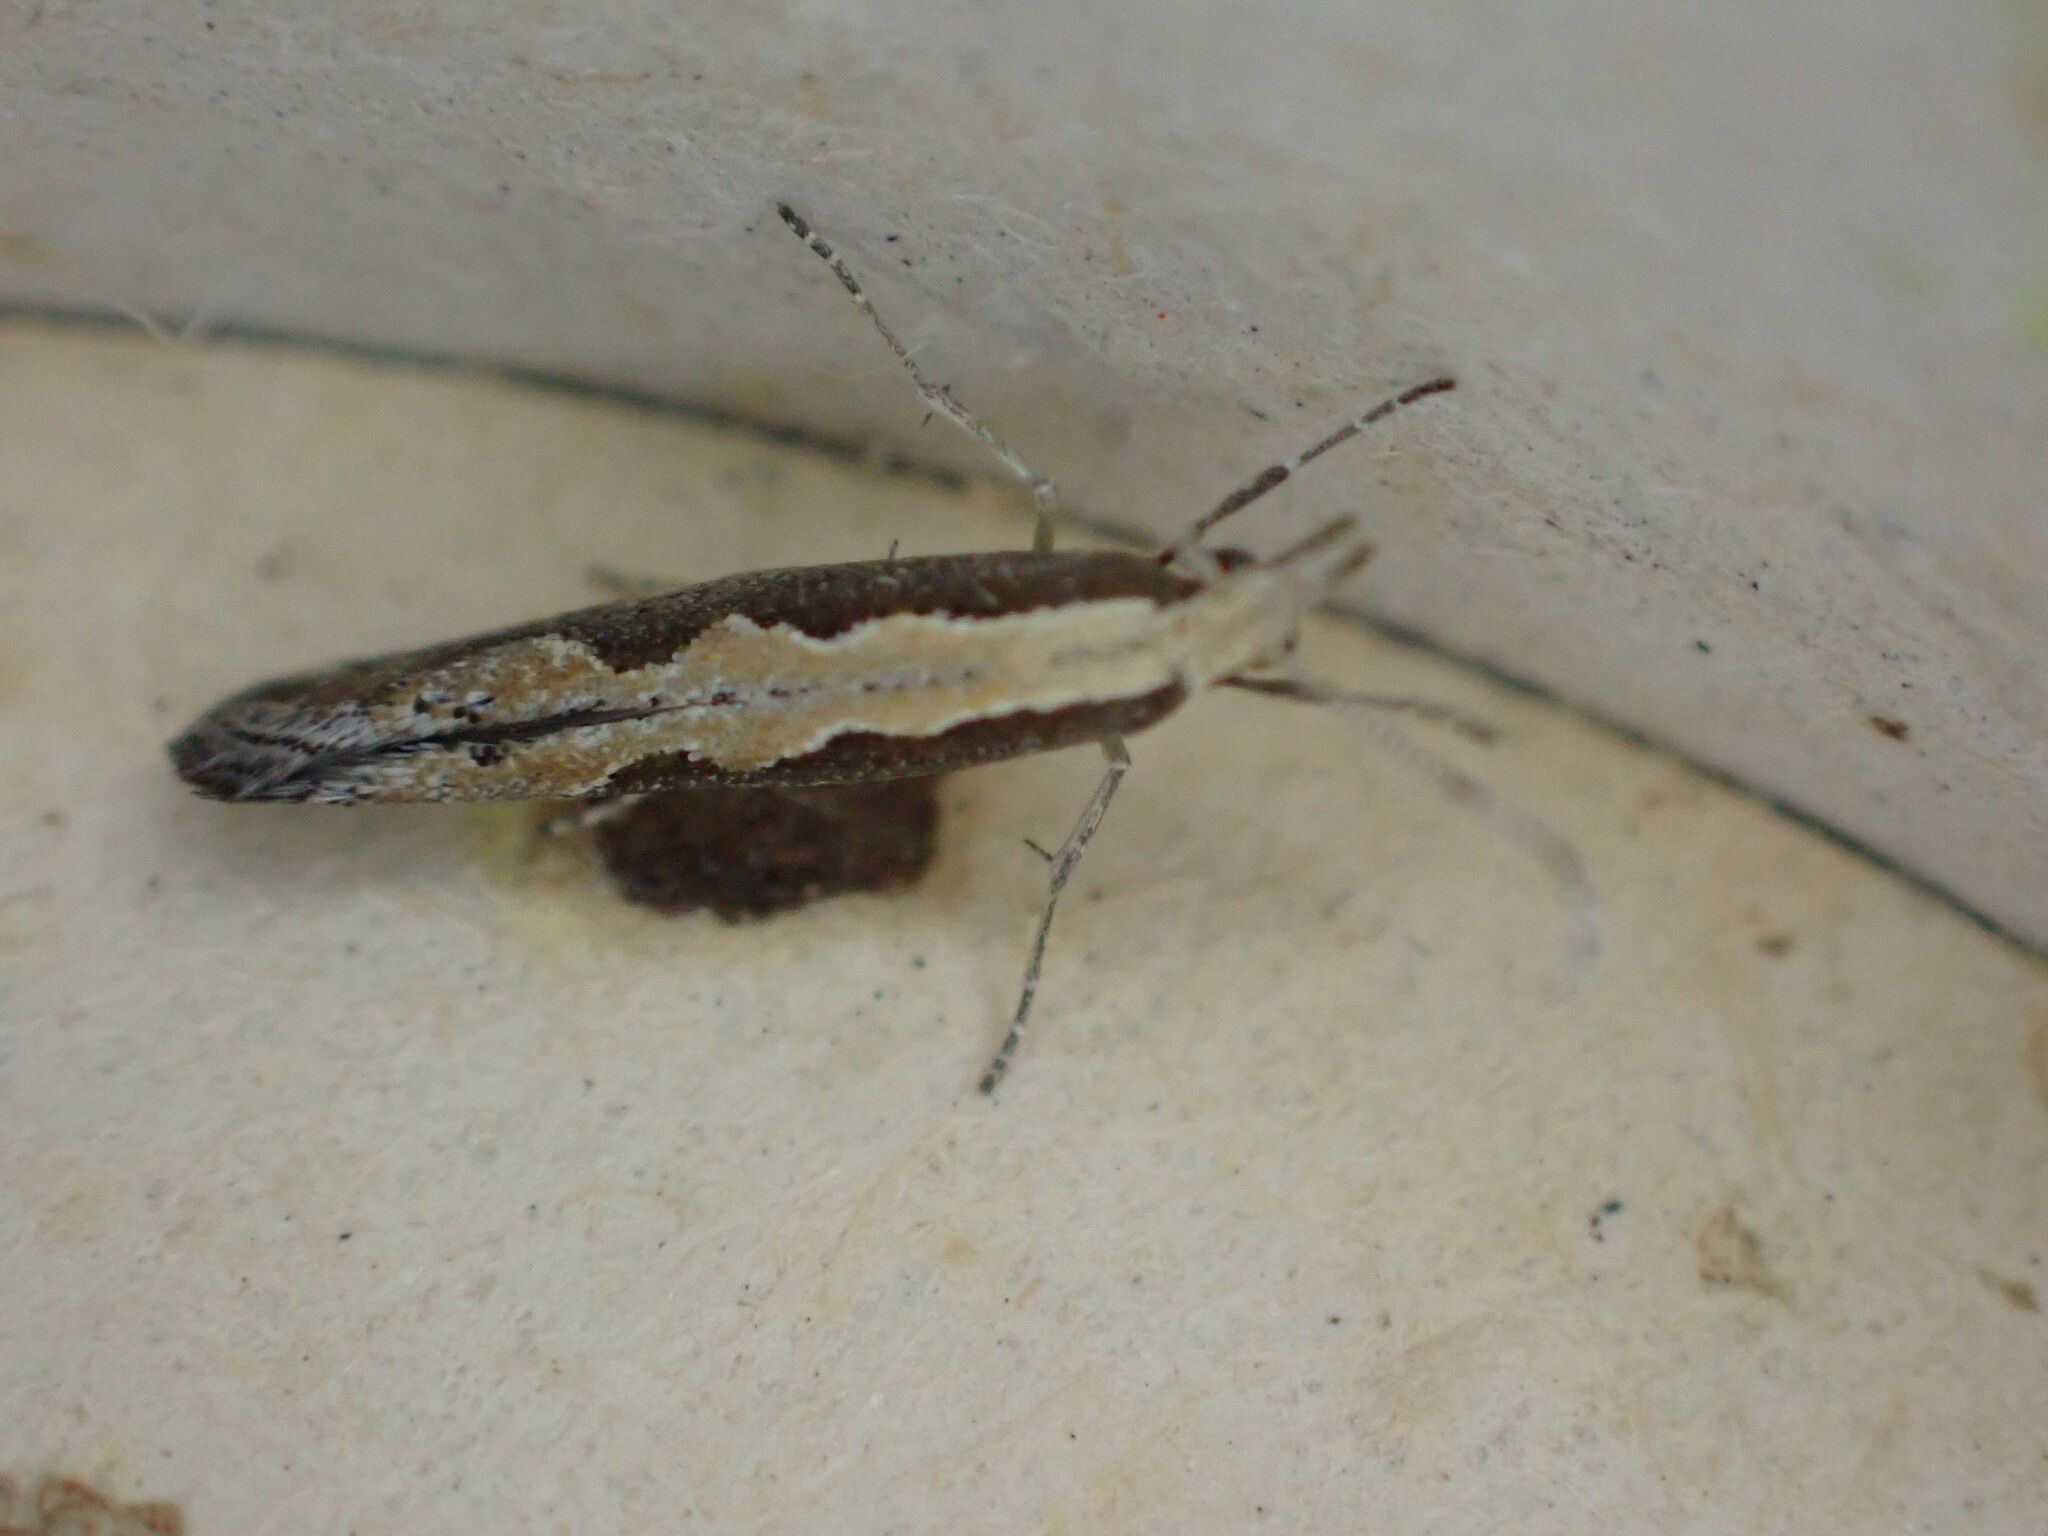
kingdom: Animalia
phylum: Arthropoda
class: Insecta
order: Lepidoptera
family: Plutellidae
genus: Plutella
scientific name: Plutella xylostella
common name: Diamond-back moth
